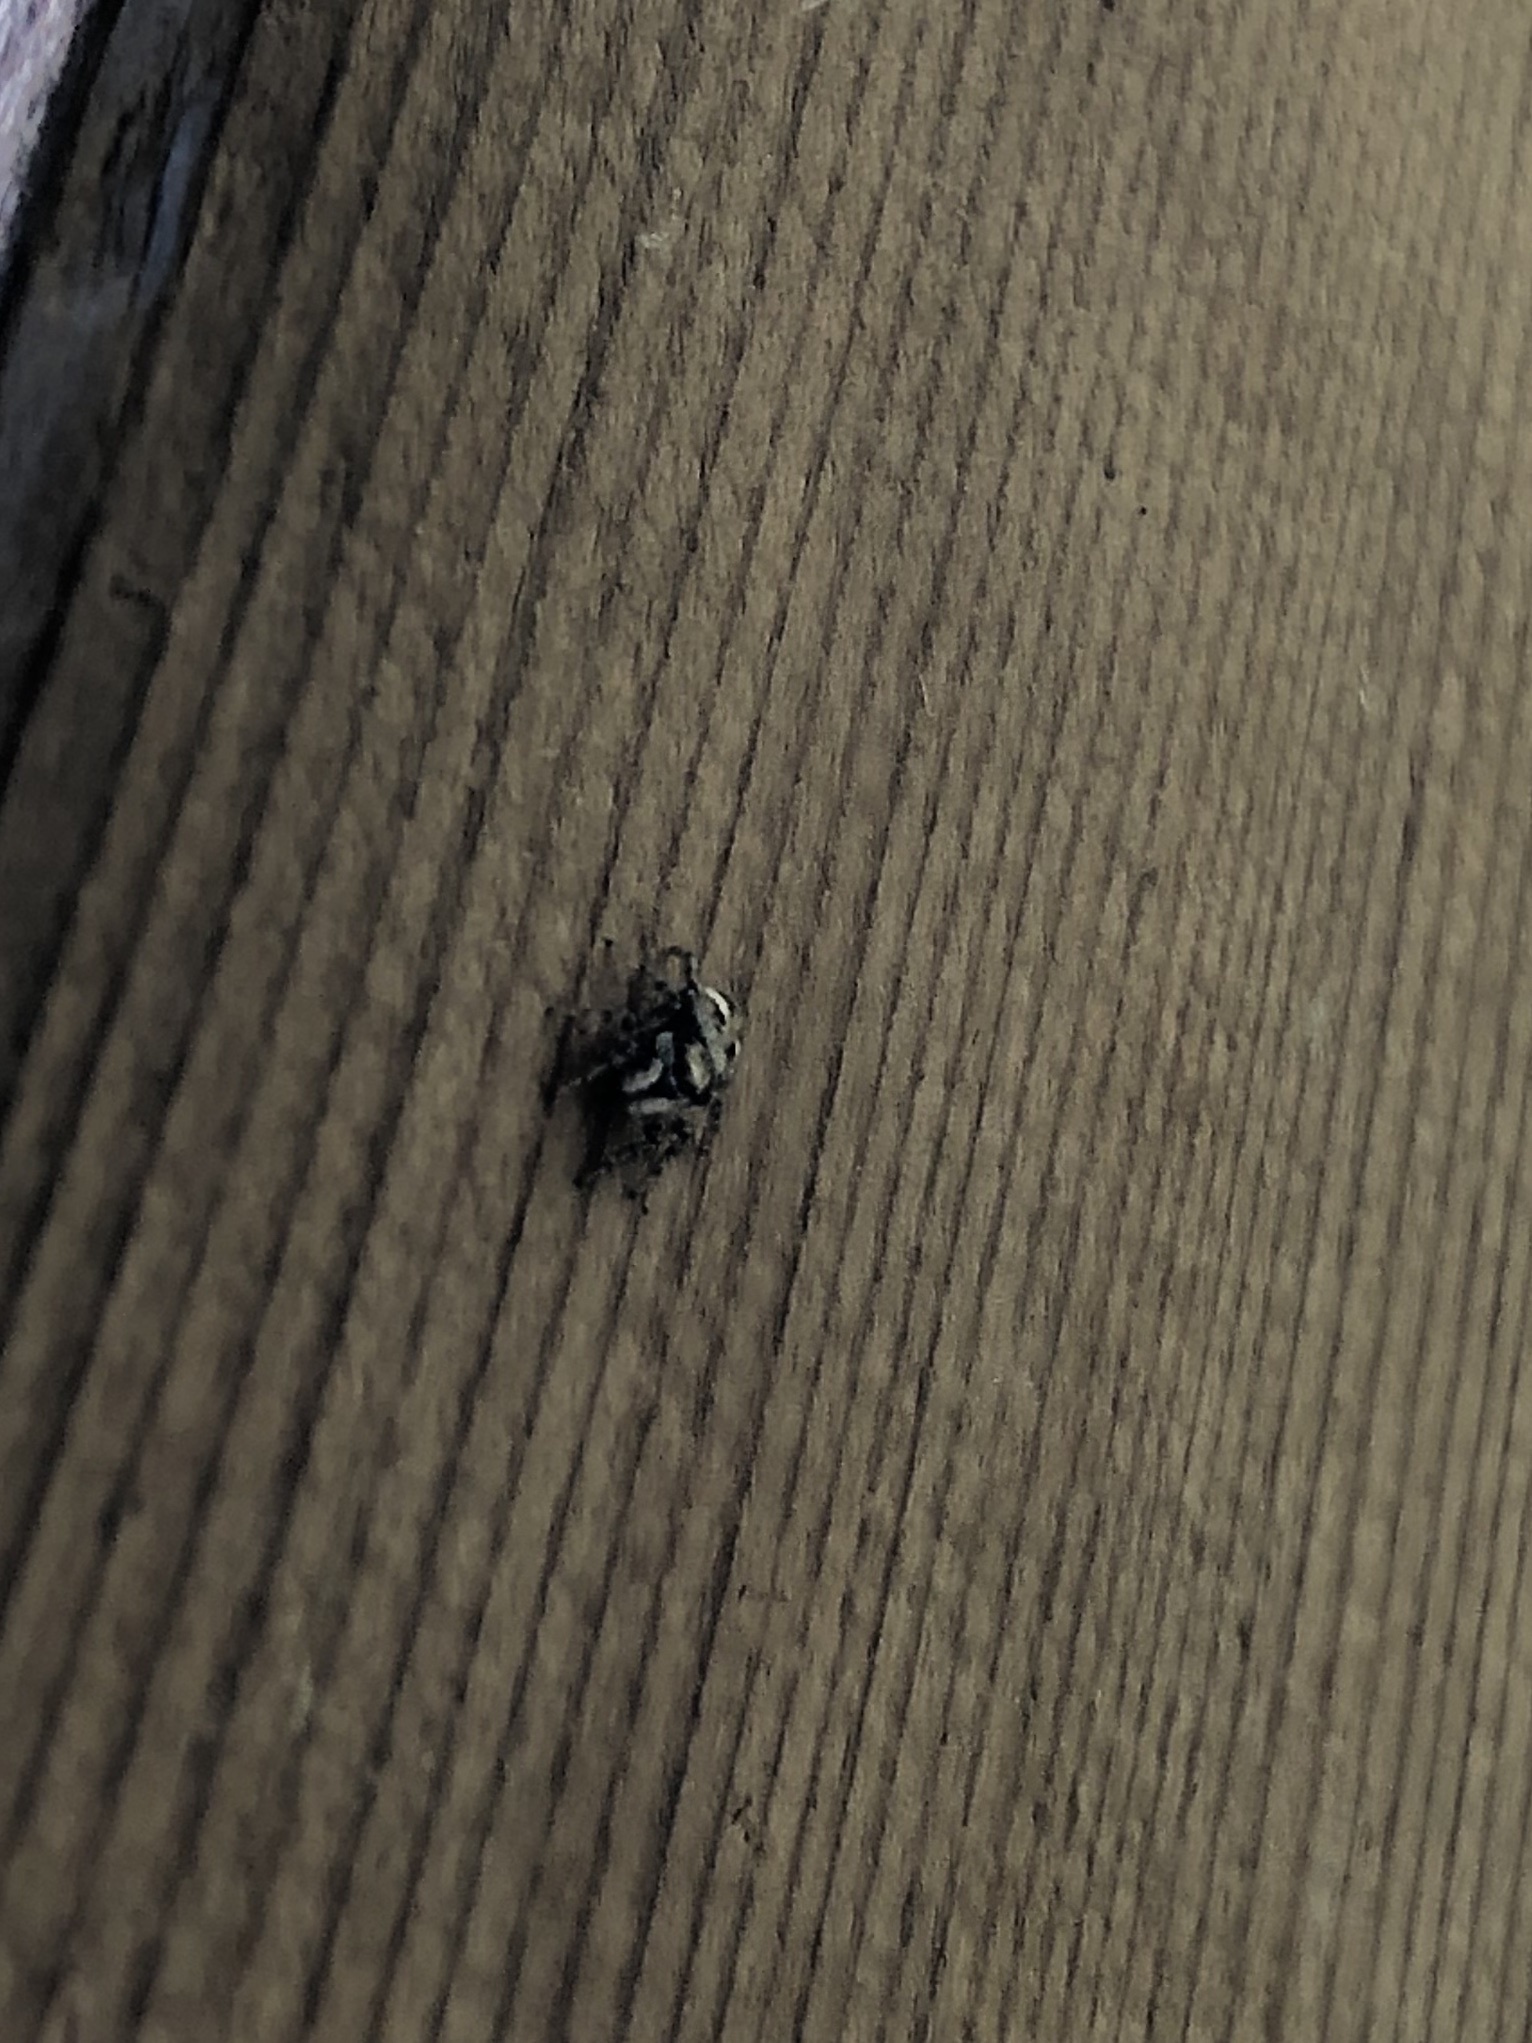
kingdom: Animalia
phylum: Arthropoda
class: Arachnida
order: Araneae
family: Salticidae
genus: Salticus
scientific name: Salticus scenicus
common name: Zebra jumper
